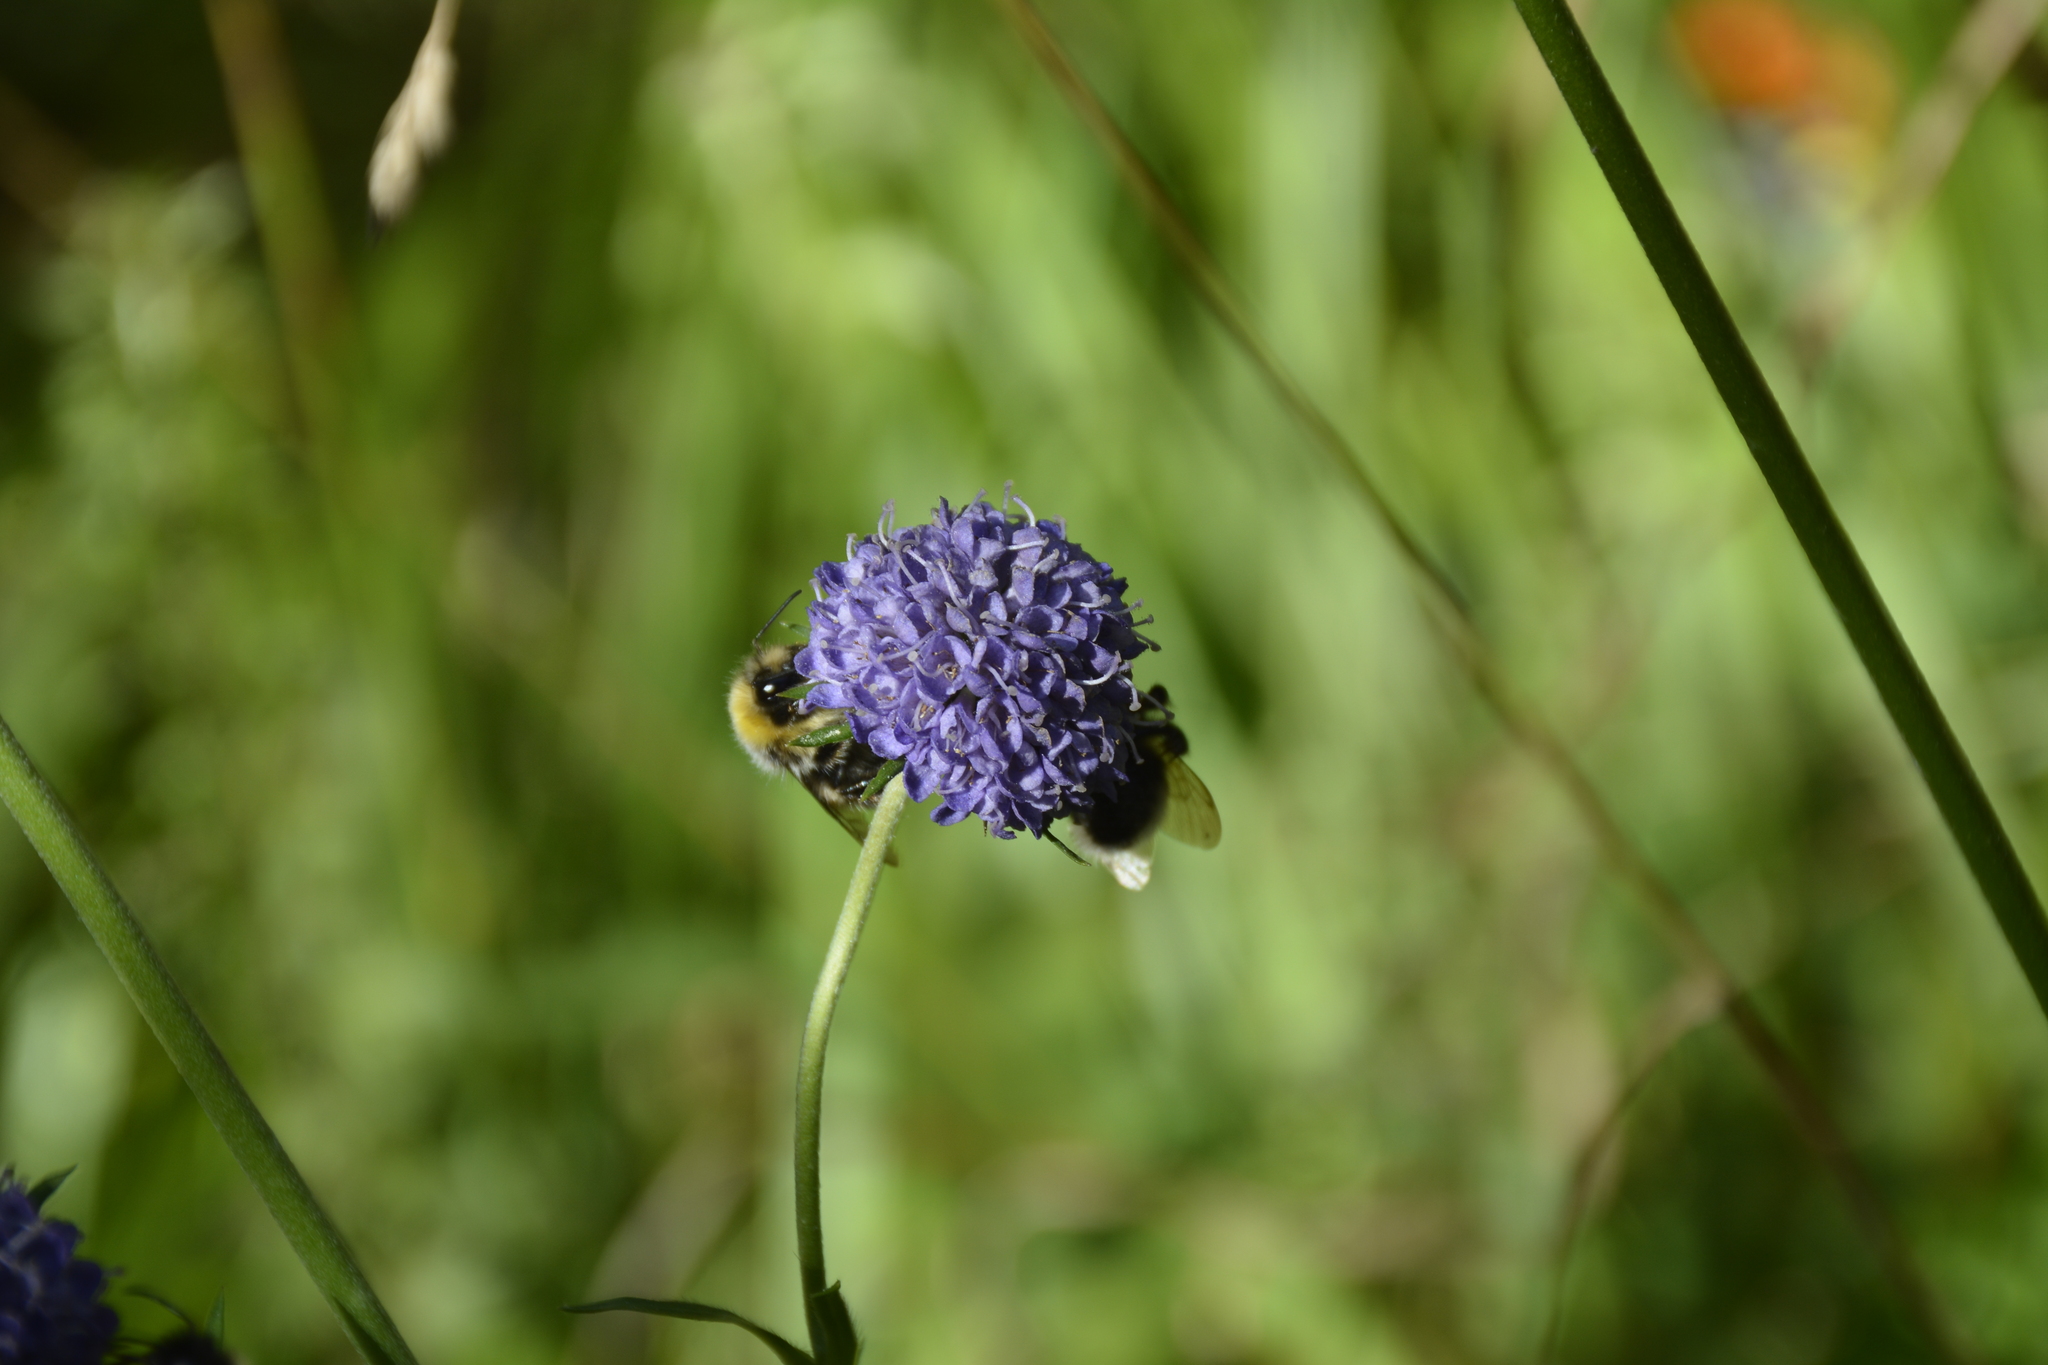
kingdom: Plantae
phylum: Tracheophyta
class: Magnoliopsida
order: Dipsacales
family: Caprifoliaceae
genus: Succisa
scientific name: Succisa pratensis
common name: Devil's-bit
